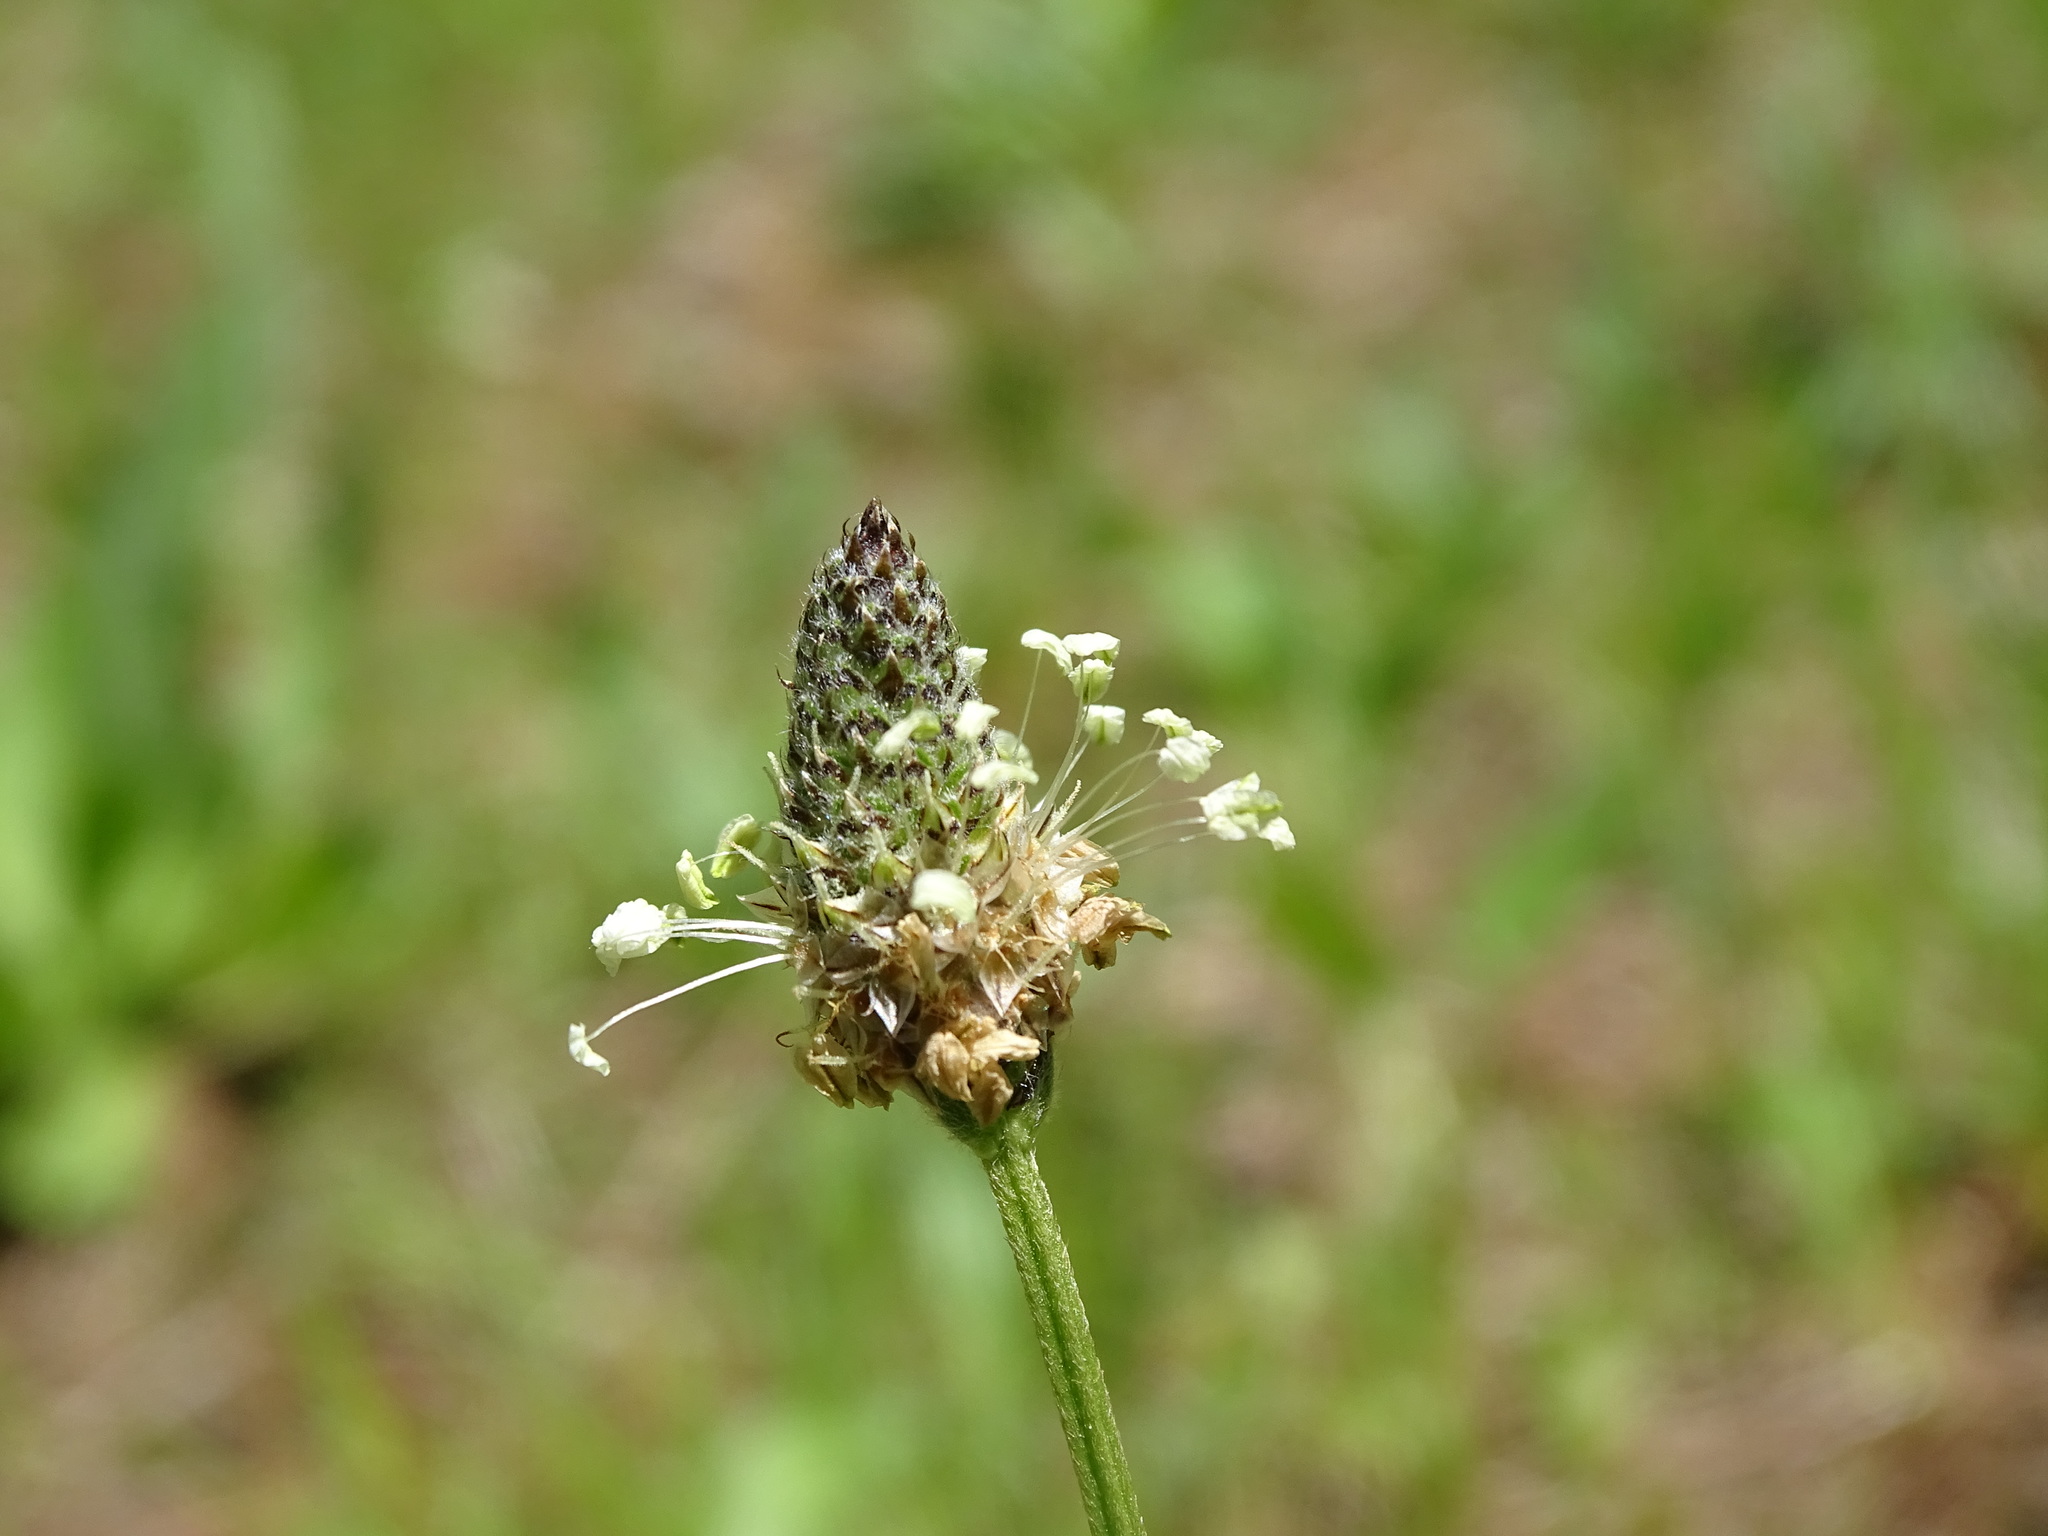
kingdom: Plantae
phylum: Tracheophyta
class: Magnoliopsida
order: Lamiales
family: Plantaginaceae
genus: Plantago
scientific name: Plantago lanceolata
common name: Ribwort plantain
